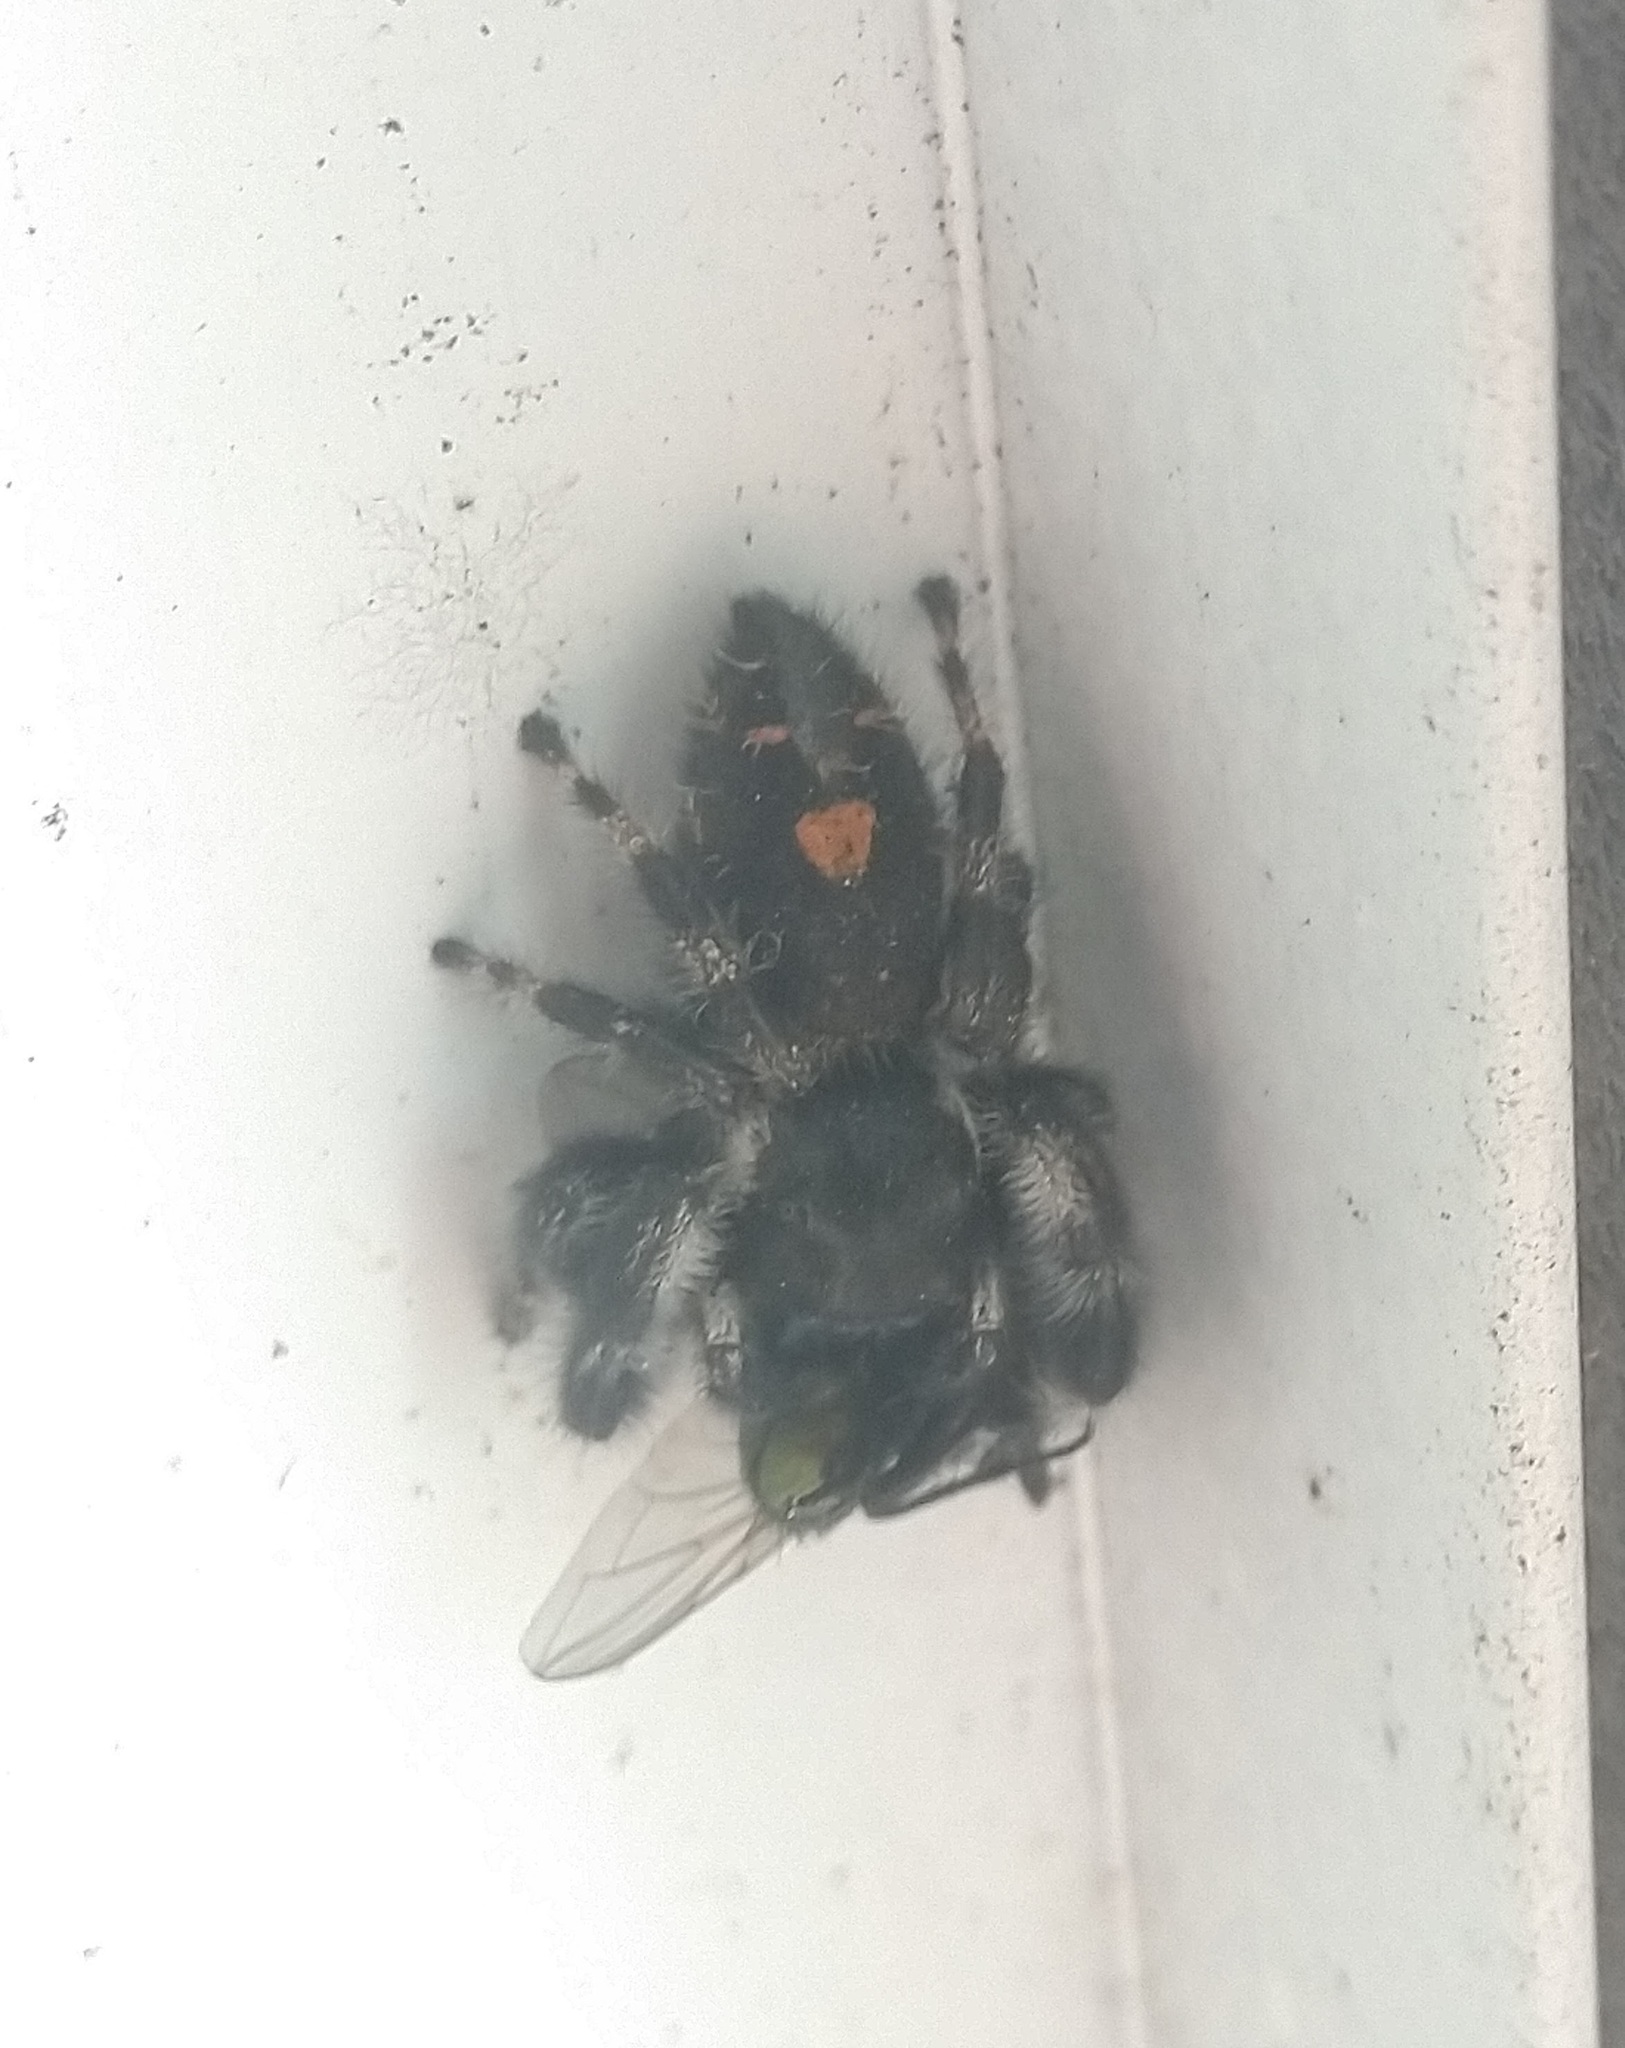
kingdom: Animalia
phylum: Arthropoda
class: Arachnida
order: Araneae
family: Salticidae
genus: Phidippus
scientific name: Phidippus audax
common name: Bold jumper
